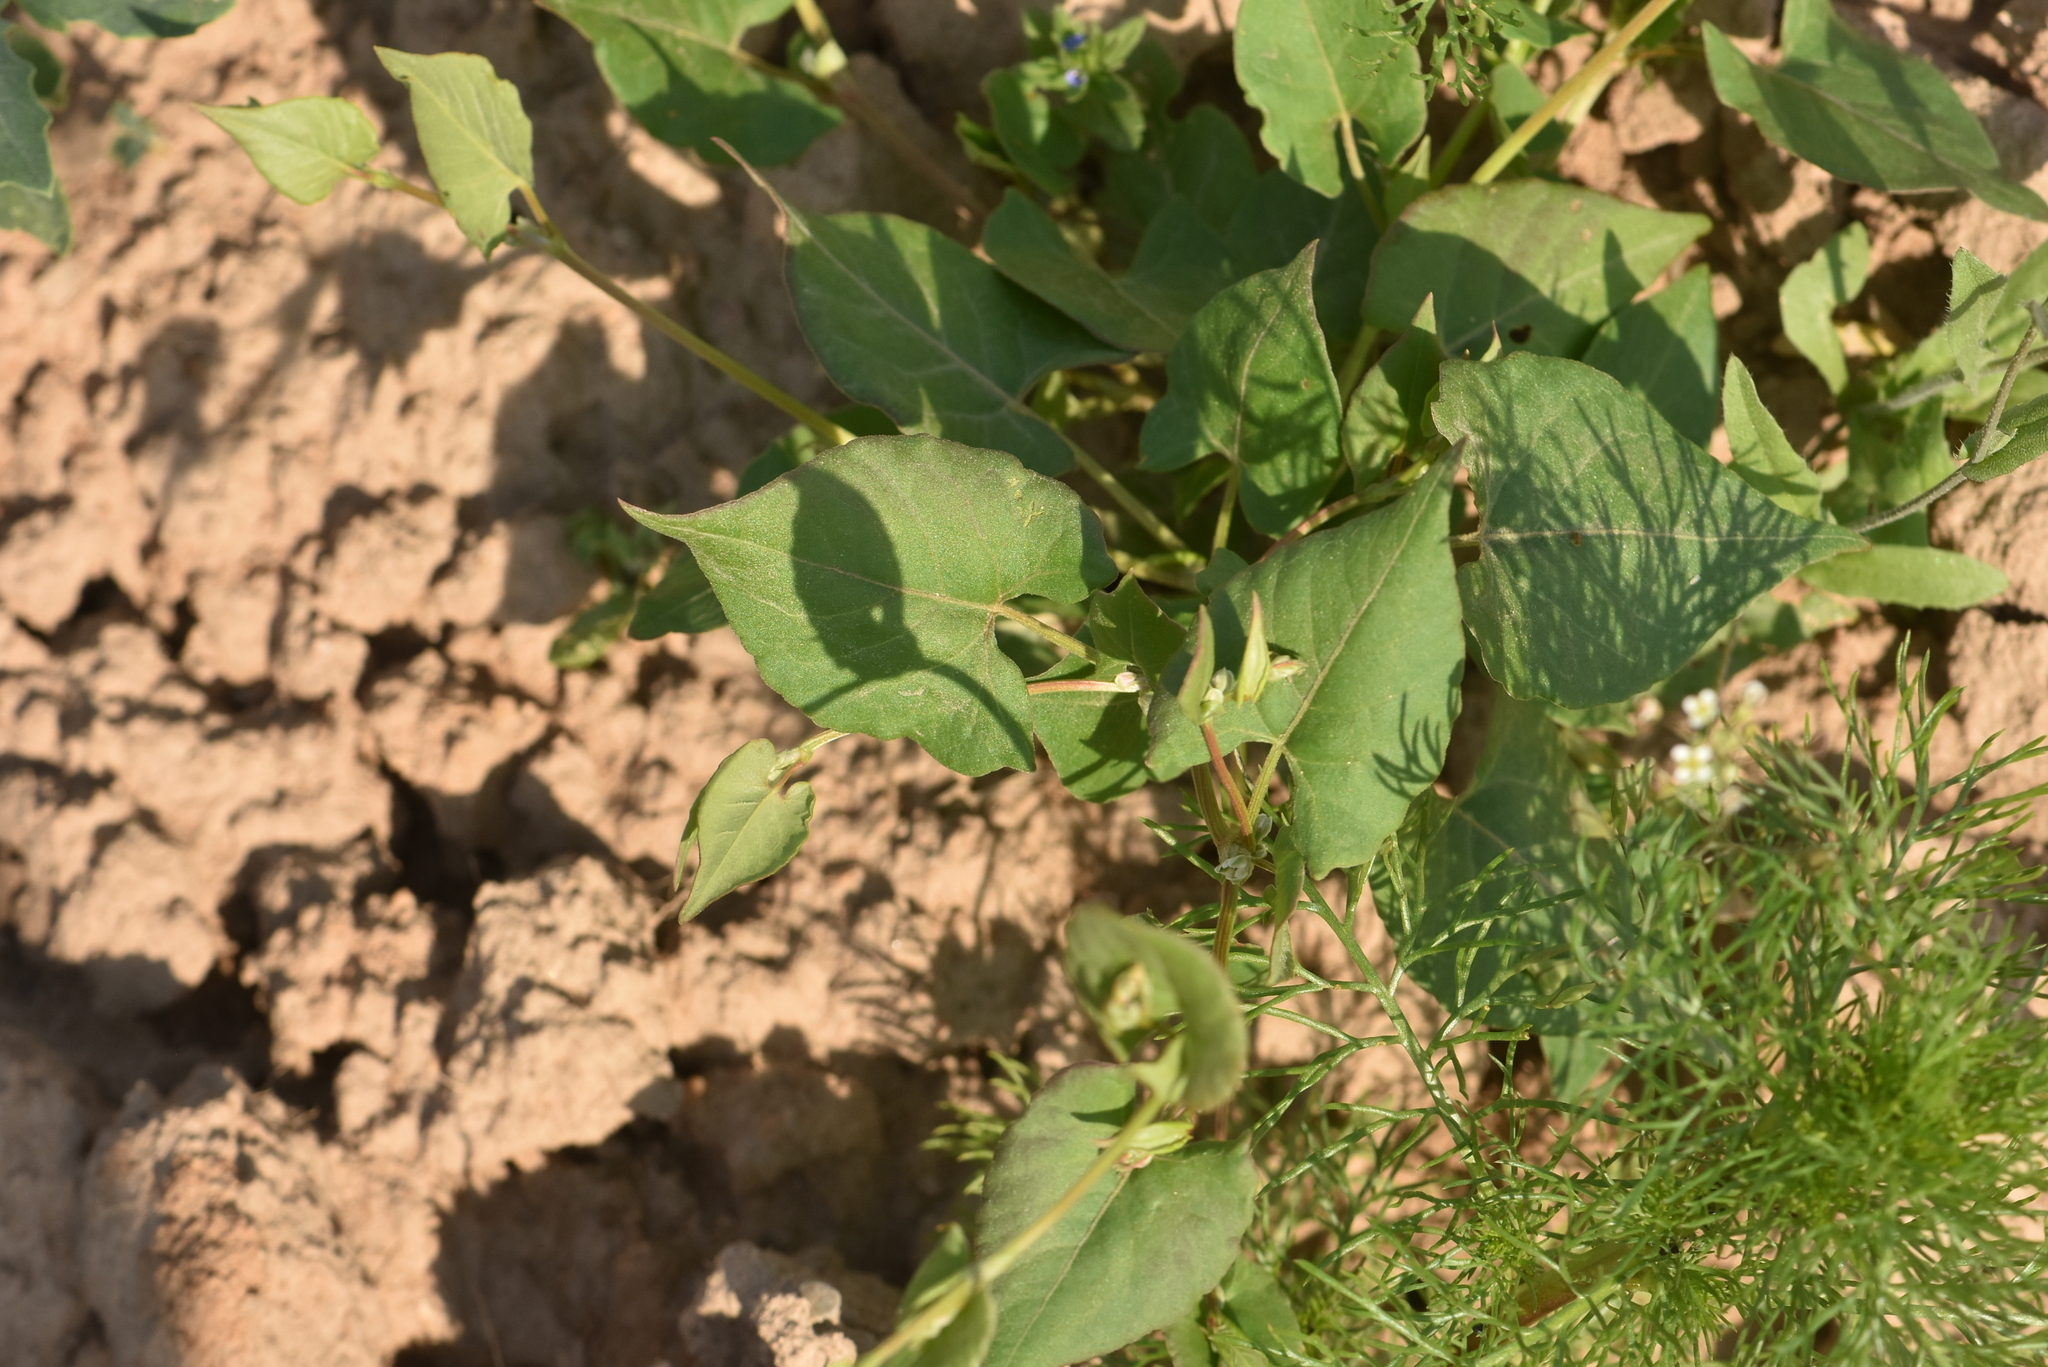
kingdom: Plantae
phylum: Tracheophyta
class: Magnoliopsida
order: Caryophyllales
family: Polygonaceae
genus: Fallopia
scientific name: Fallopia convolvulus
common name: Black bindweed
